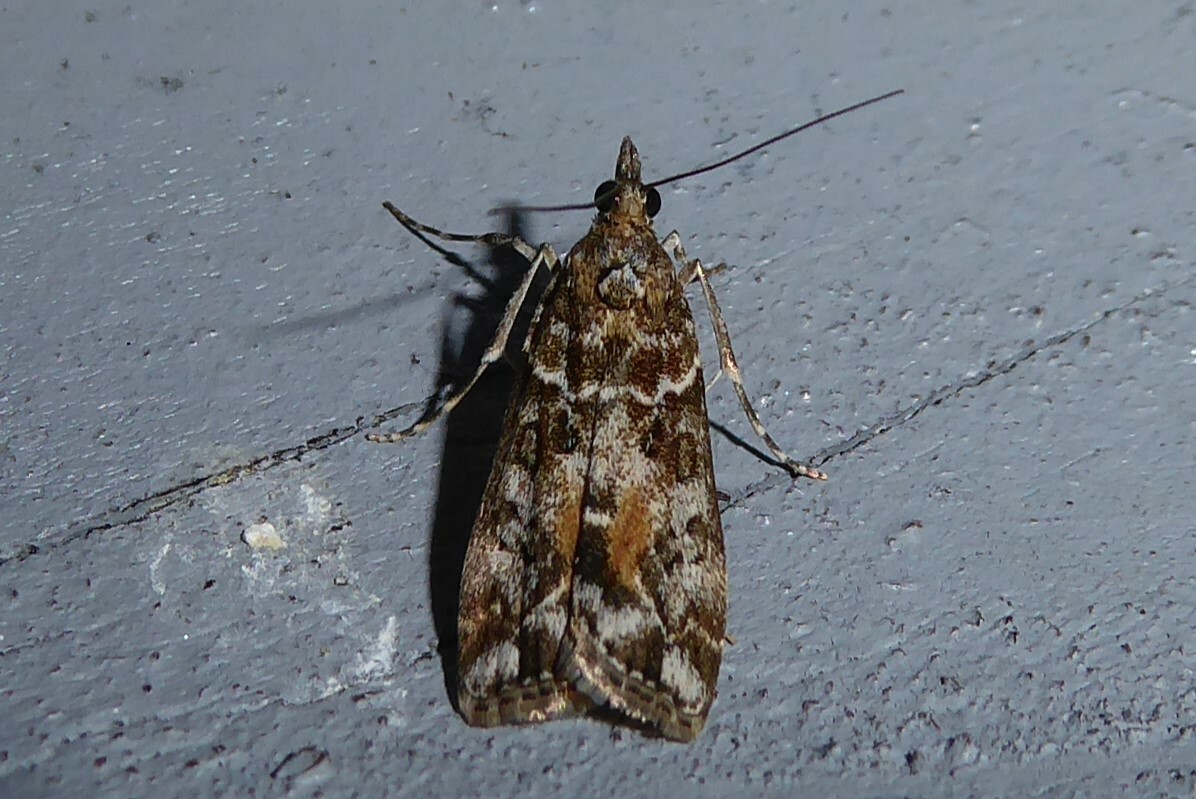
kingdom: Animalia
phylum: Arthropoda
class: Insecta
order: Lepidoptera
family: Crambidae
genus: Eudonia
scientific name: Eudonia submarginalis
